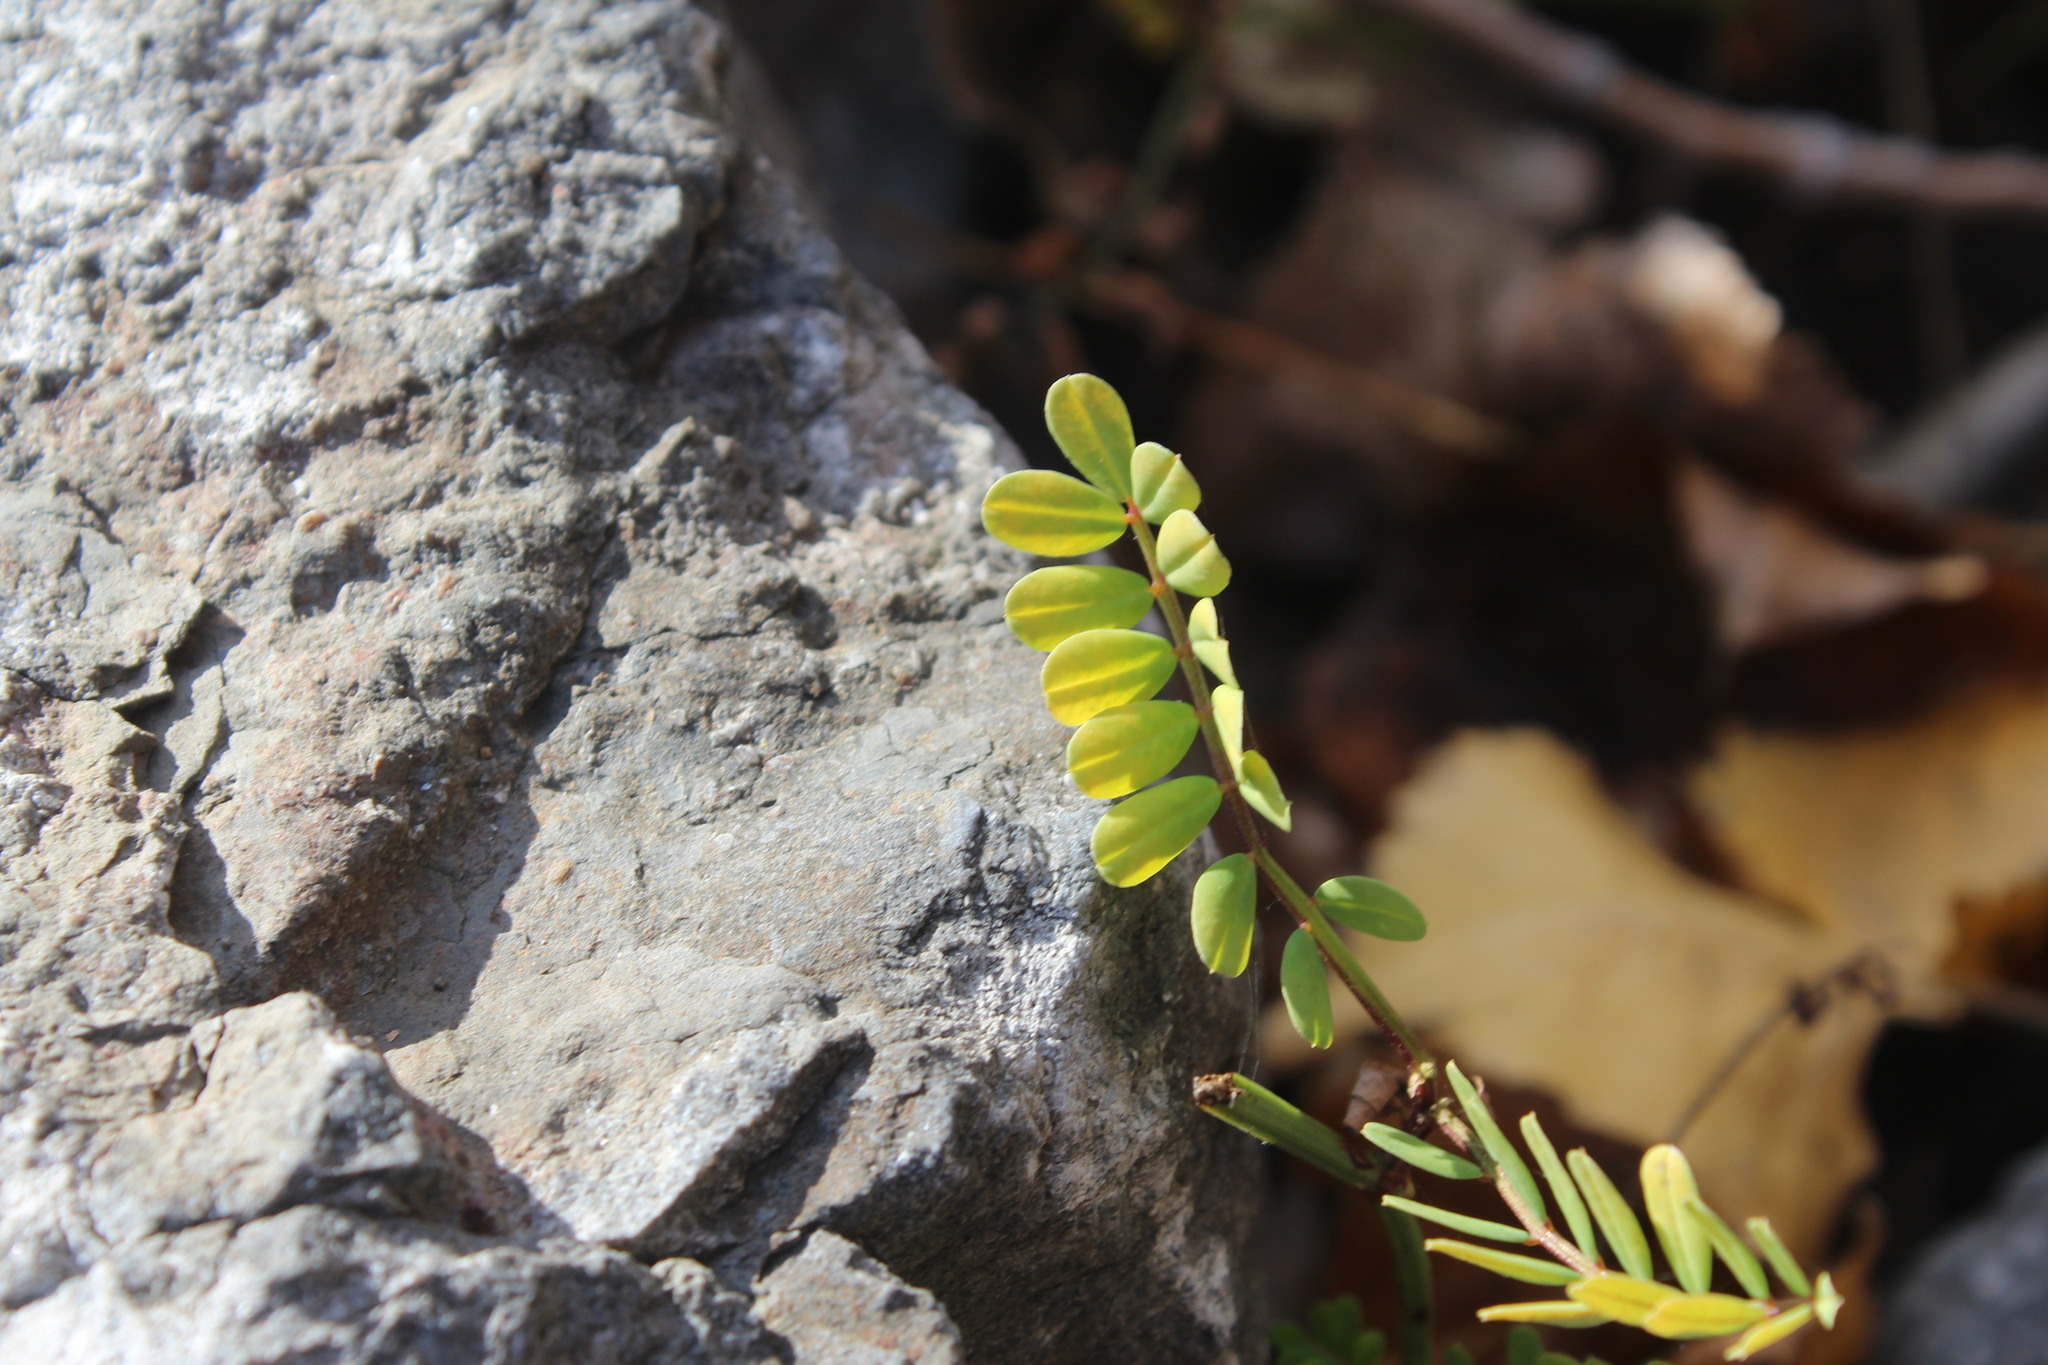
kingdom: Plantae
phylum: Tracheophyta
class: Magnoliopsida
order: Fabales
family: Fabaceae
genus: Coronilla
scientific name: Coronilla varia
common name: Crownvetch
